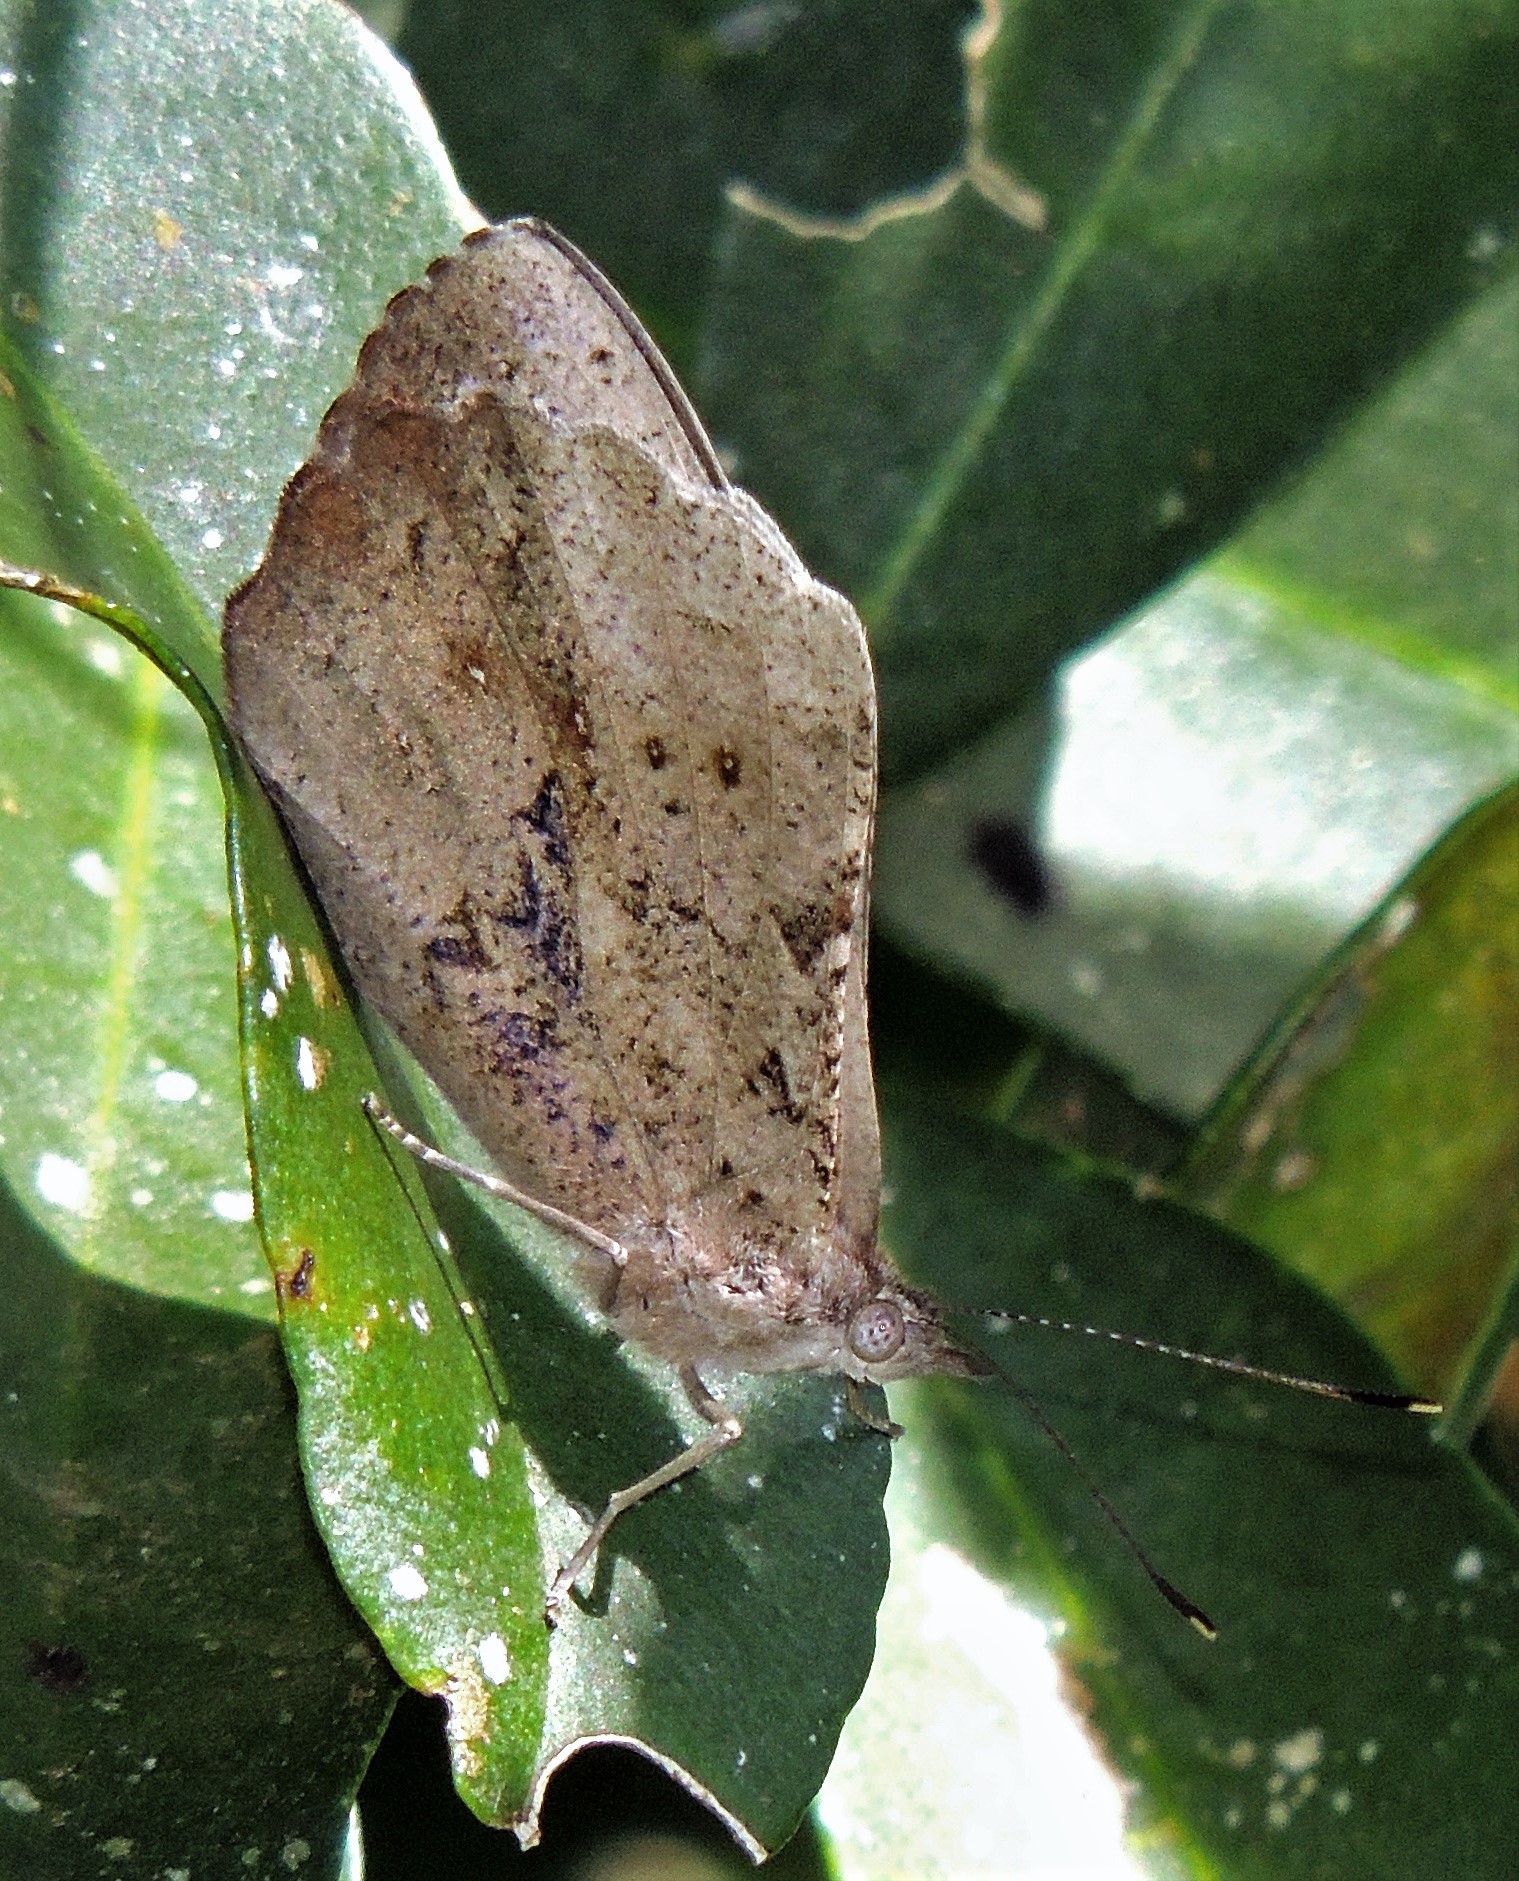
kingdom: Animalia
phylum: Arthropoda
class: Insecta
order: Lepidoptera
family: Nymphalidae
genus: Eunica
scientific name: Eunica eburnea
